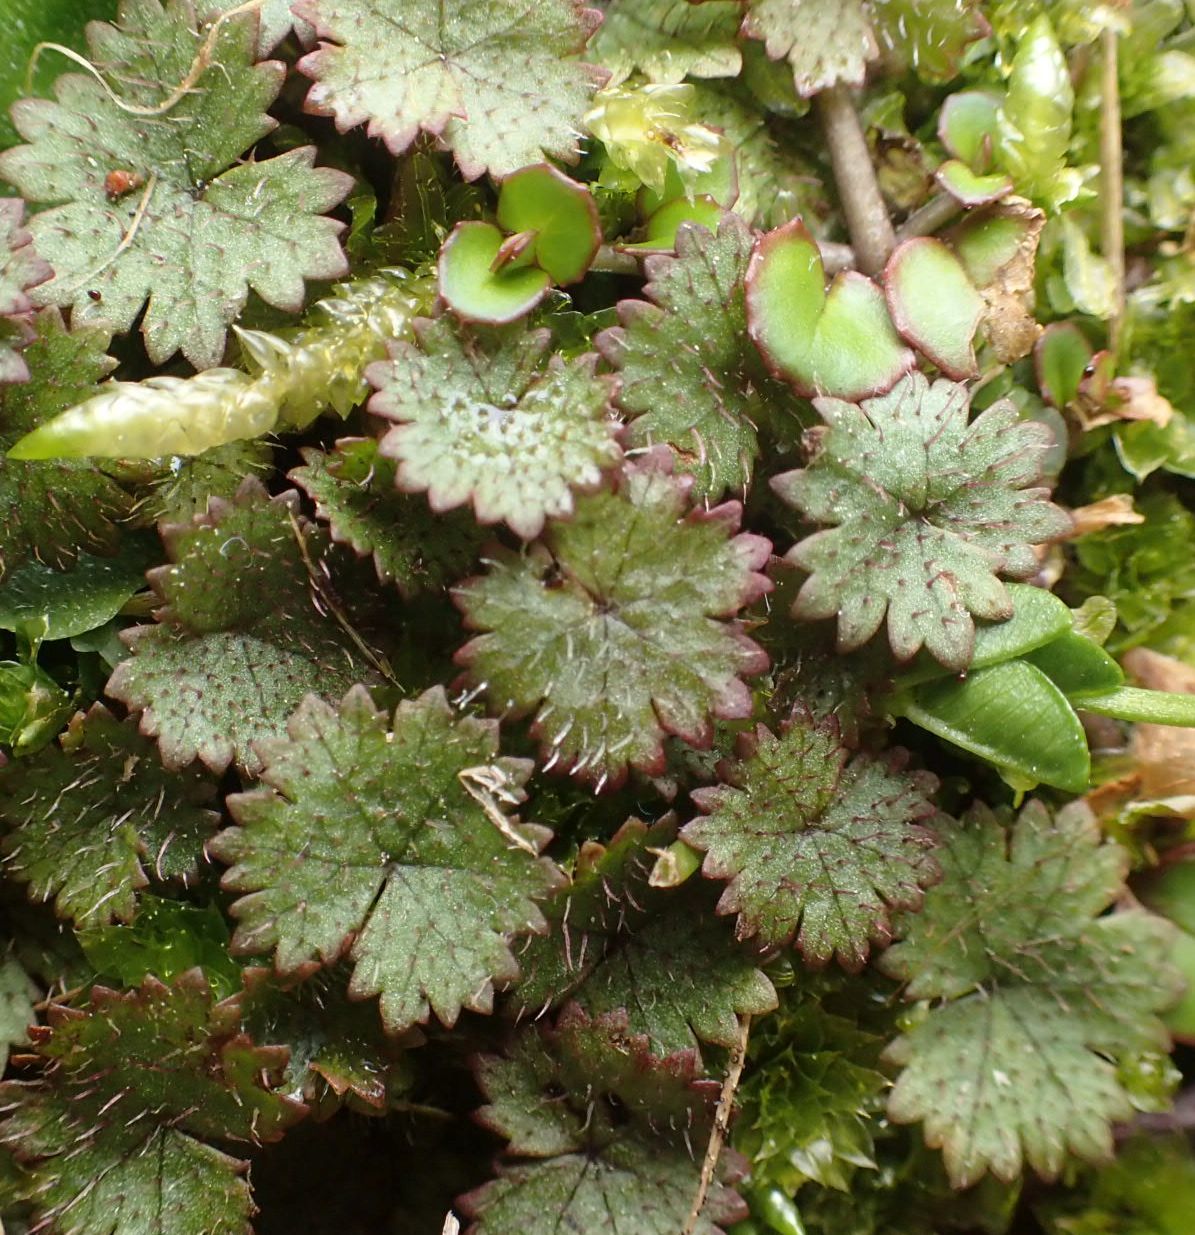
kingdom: Plantae
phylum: Tracheophyta
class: Magnoliopsida
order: Apiales
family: Araliaceae
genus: Hydrocotyle
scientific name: Hydrocotyle moschata
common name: Hairy pennywort
